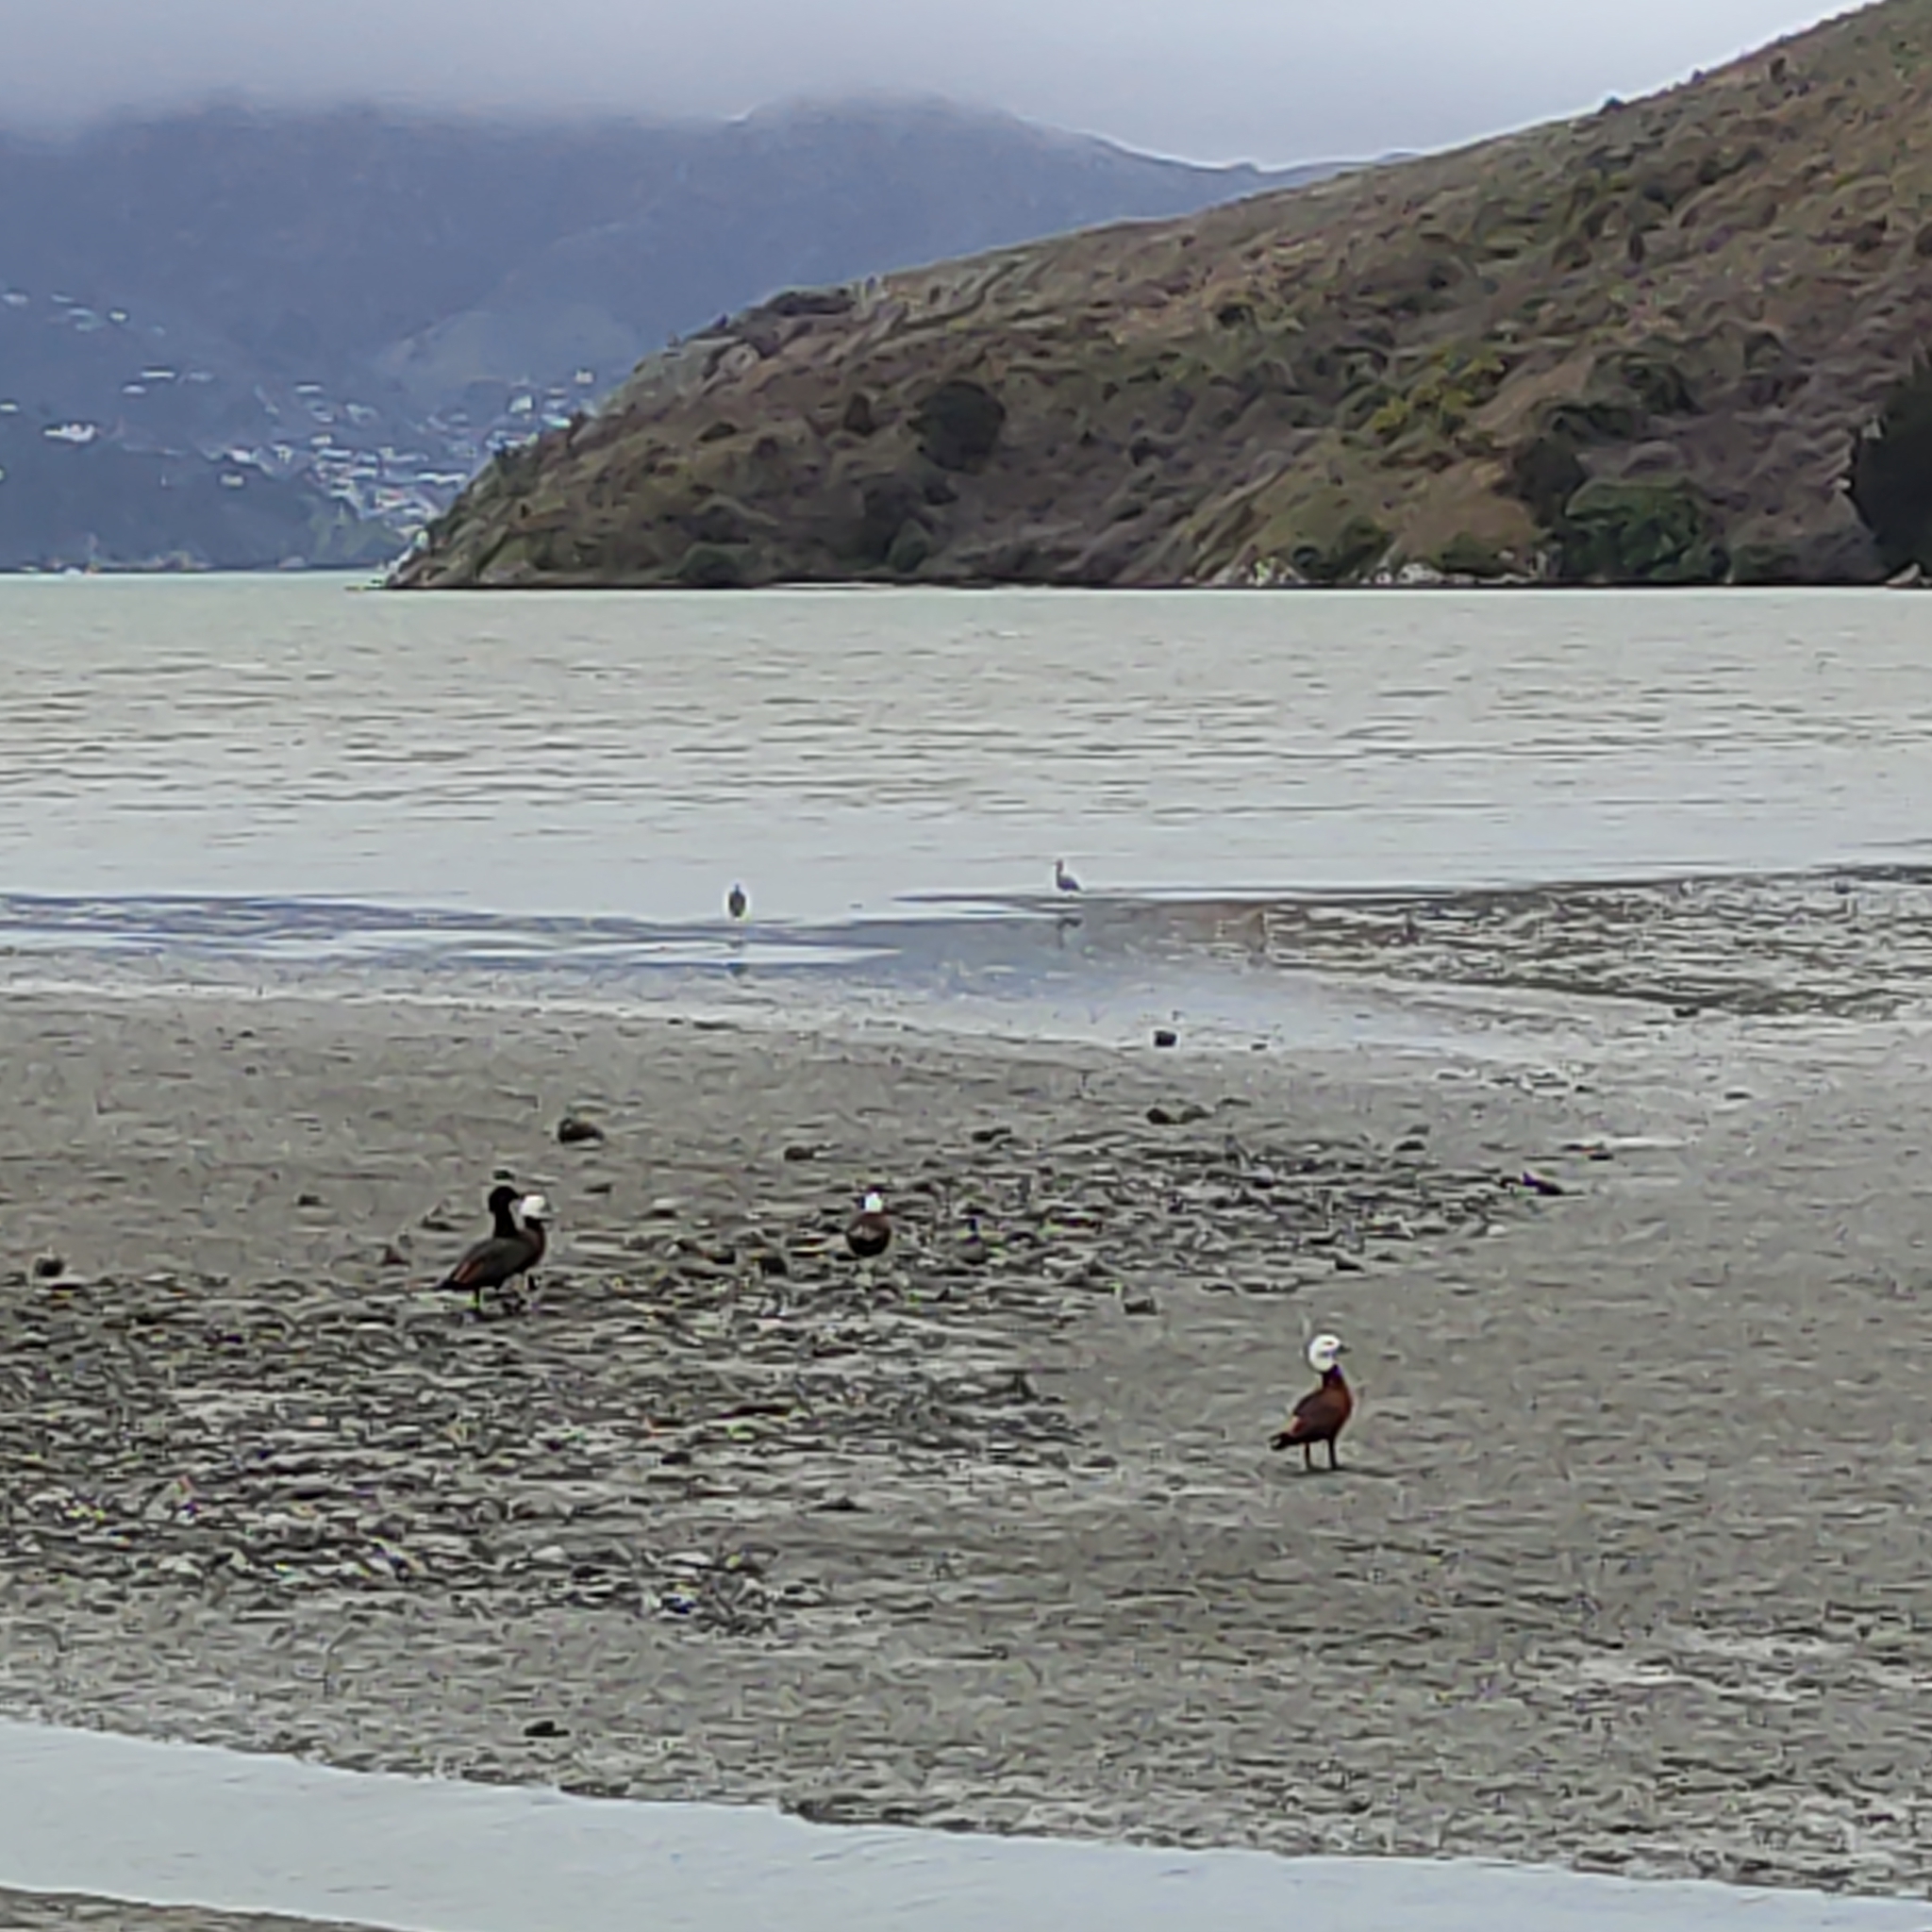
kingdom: Animalia
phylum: Chordata
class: Aves
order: Anseriformes
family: Anatidae
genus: Tadorna
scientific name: Tadorna variegata
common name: Paradise shelduck
